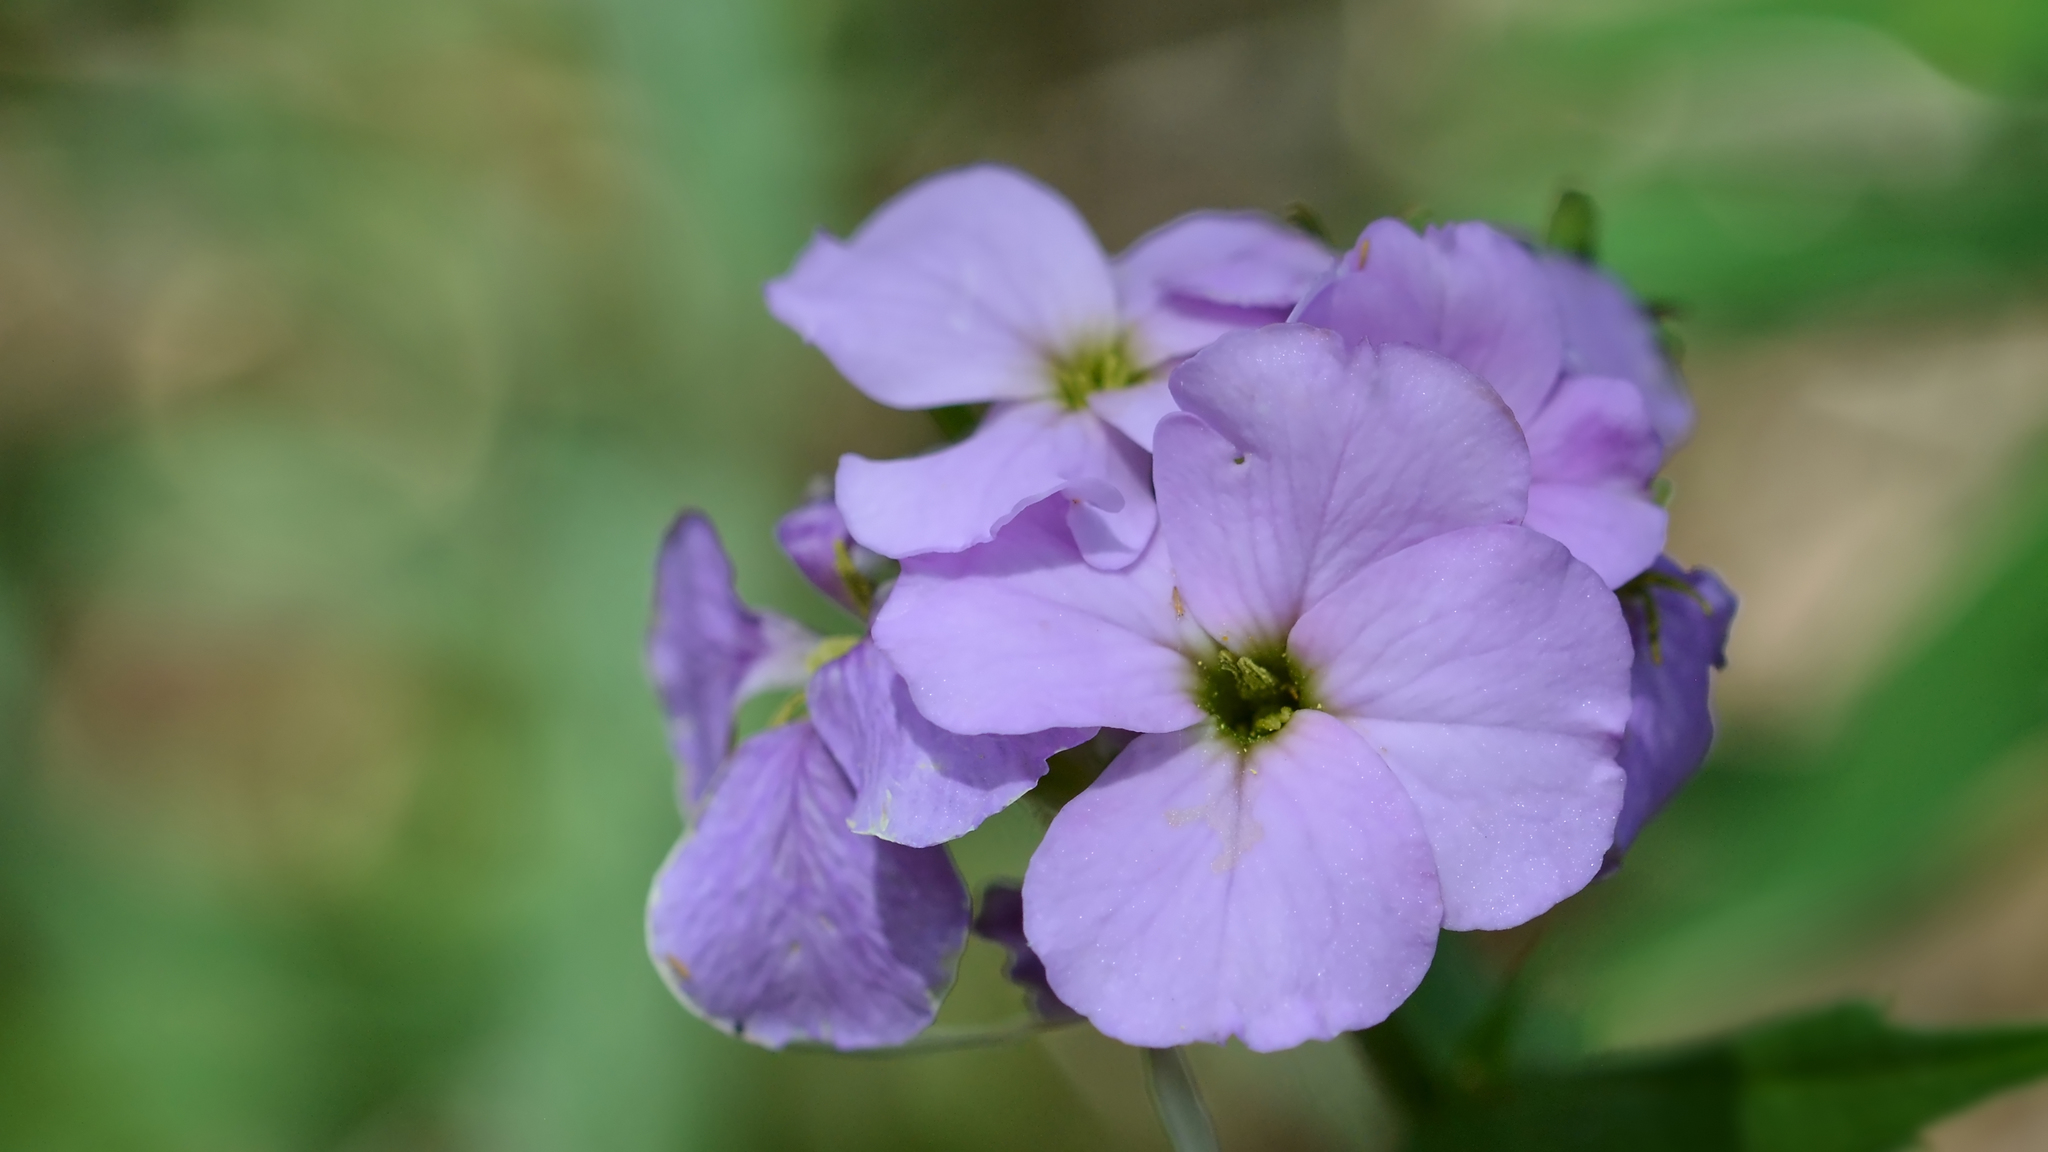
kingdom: Plantae
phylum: Tracheophyta
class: Magnoliopsida
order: Brassicales
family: Brassicaceae
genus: Hesperis
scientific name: Hesperis matronalis
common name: Dame's-violet
